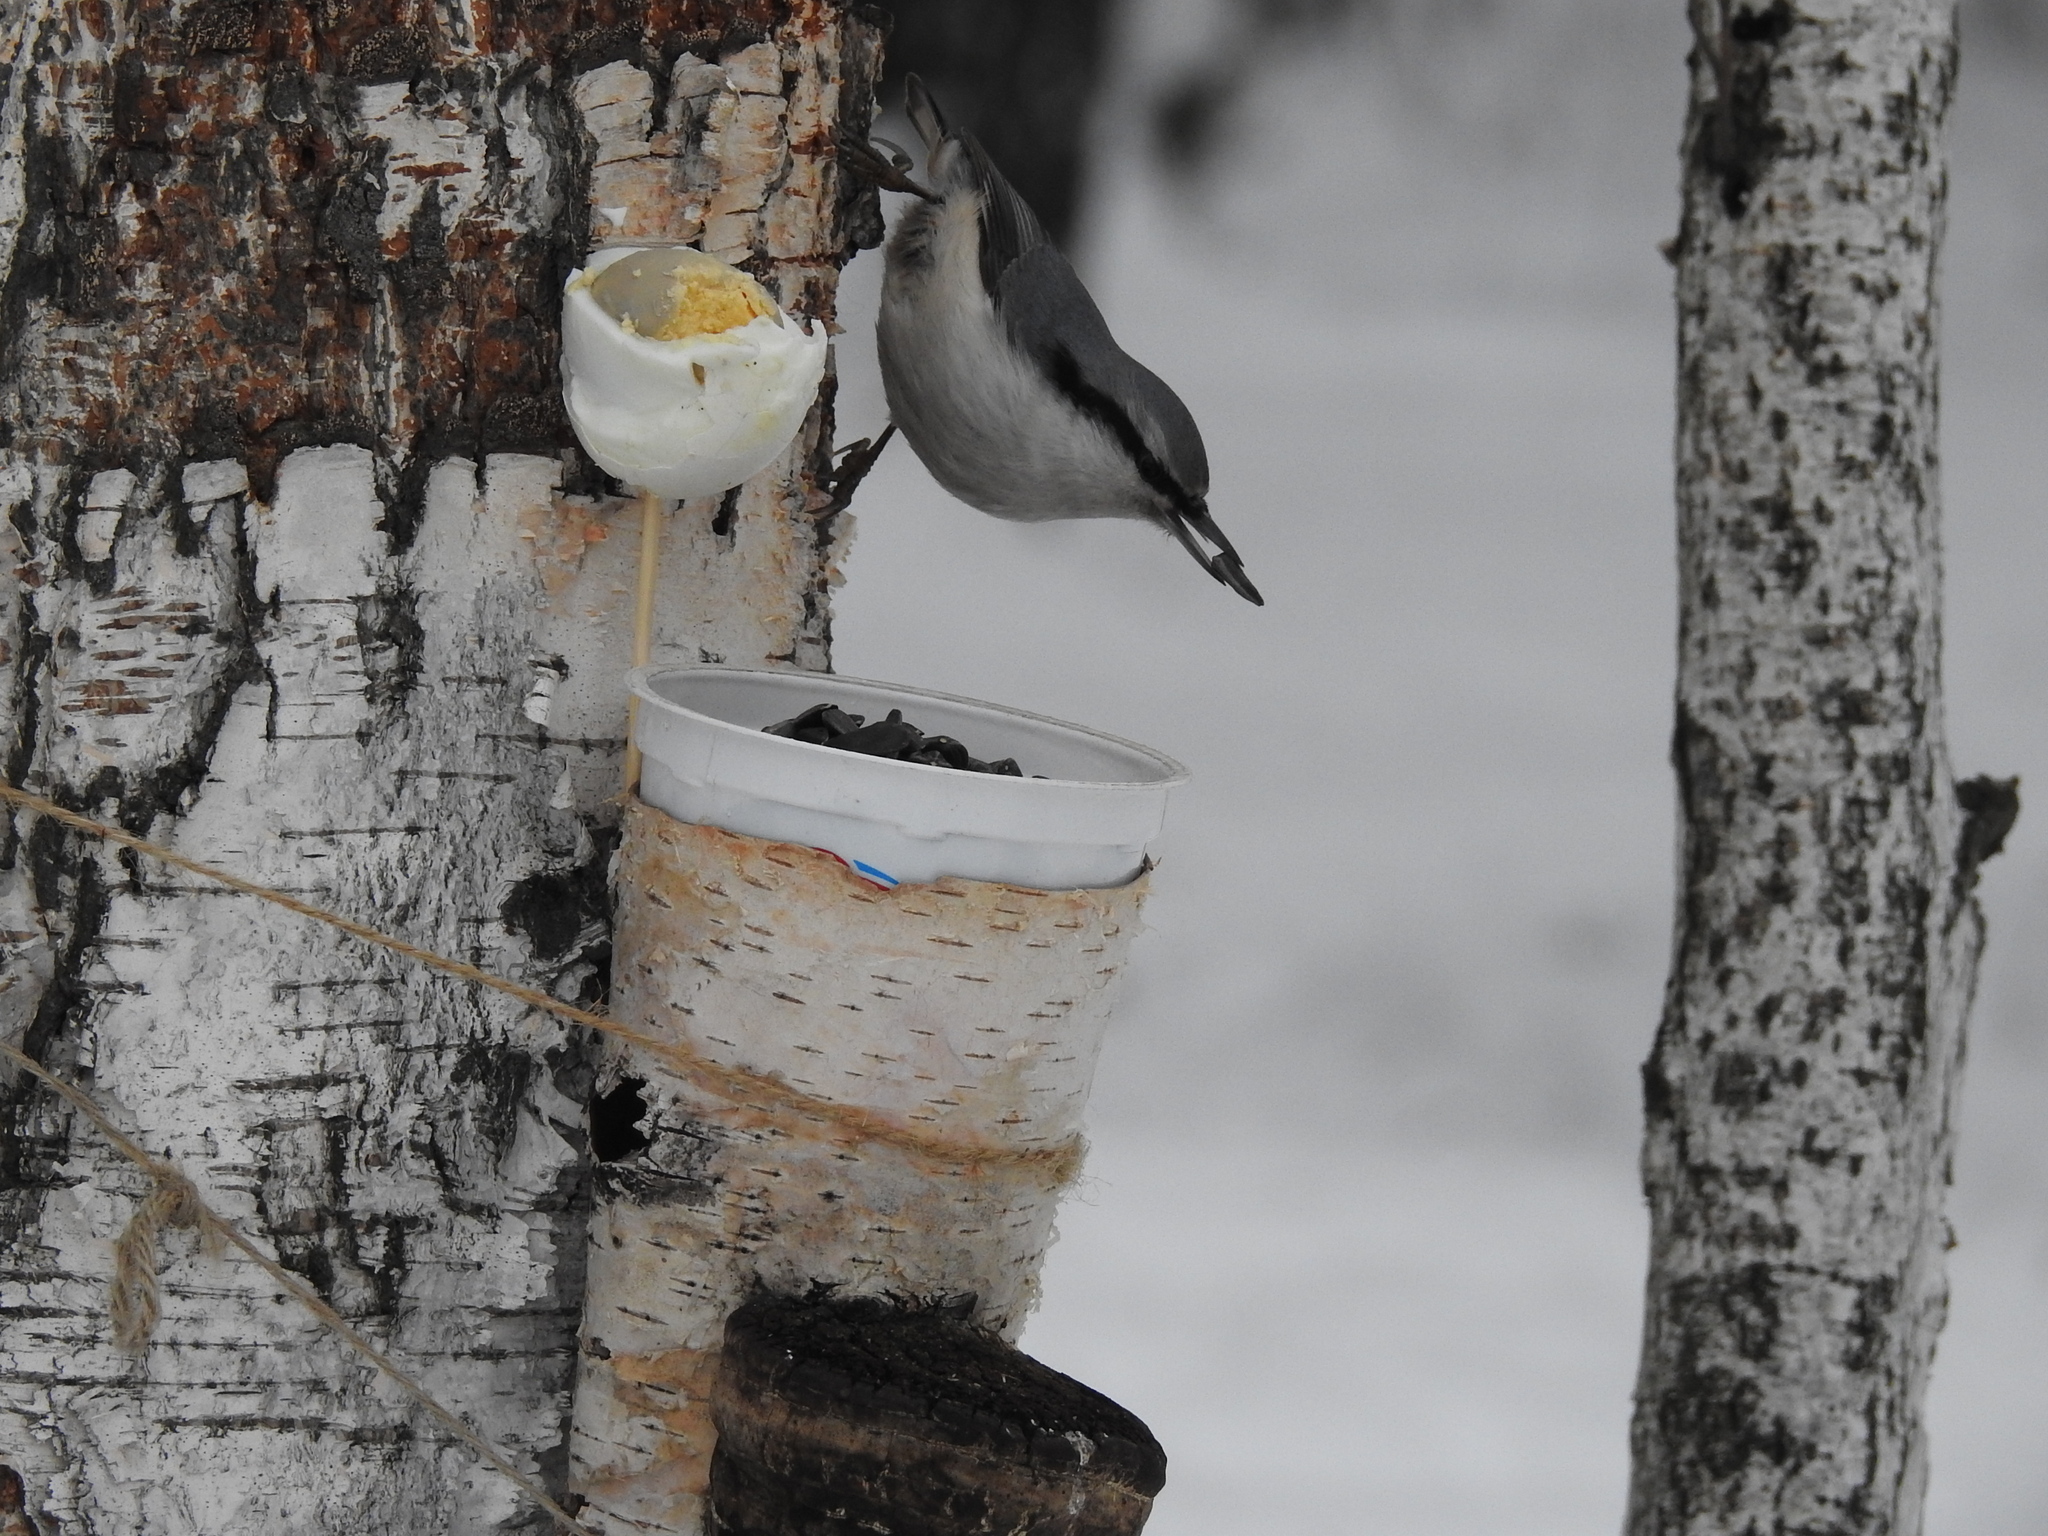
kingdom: Animalia
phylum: Chordata
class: Aves
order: Passeriformes
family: Sittidae
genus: Sitta
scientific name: Sitta europaea
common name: Eurasian nuthatch
